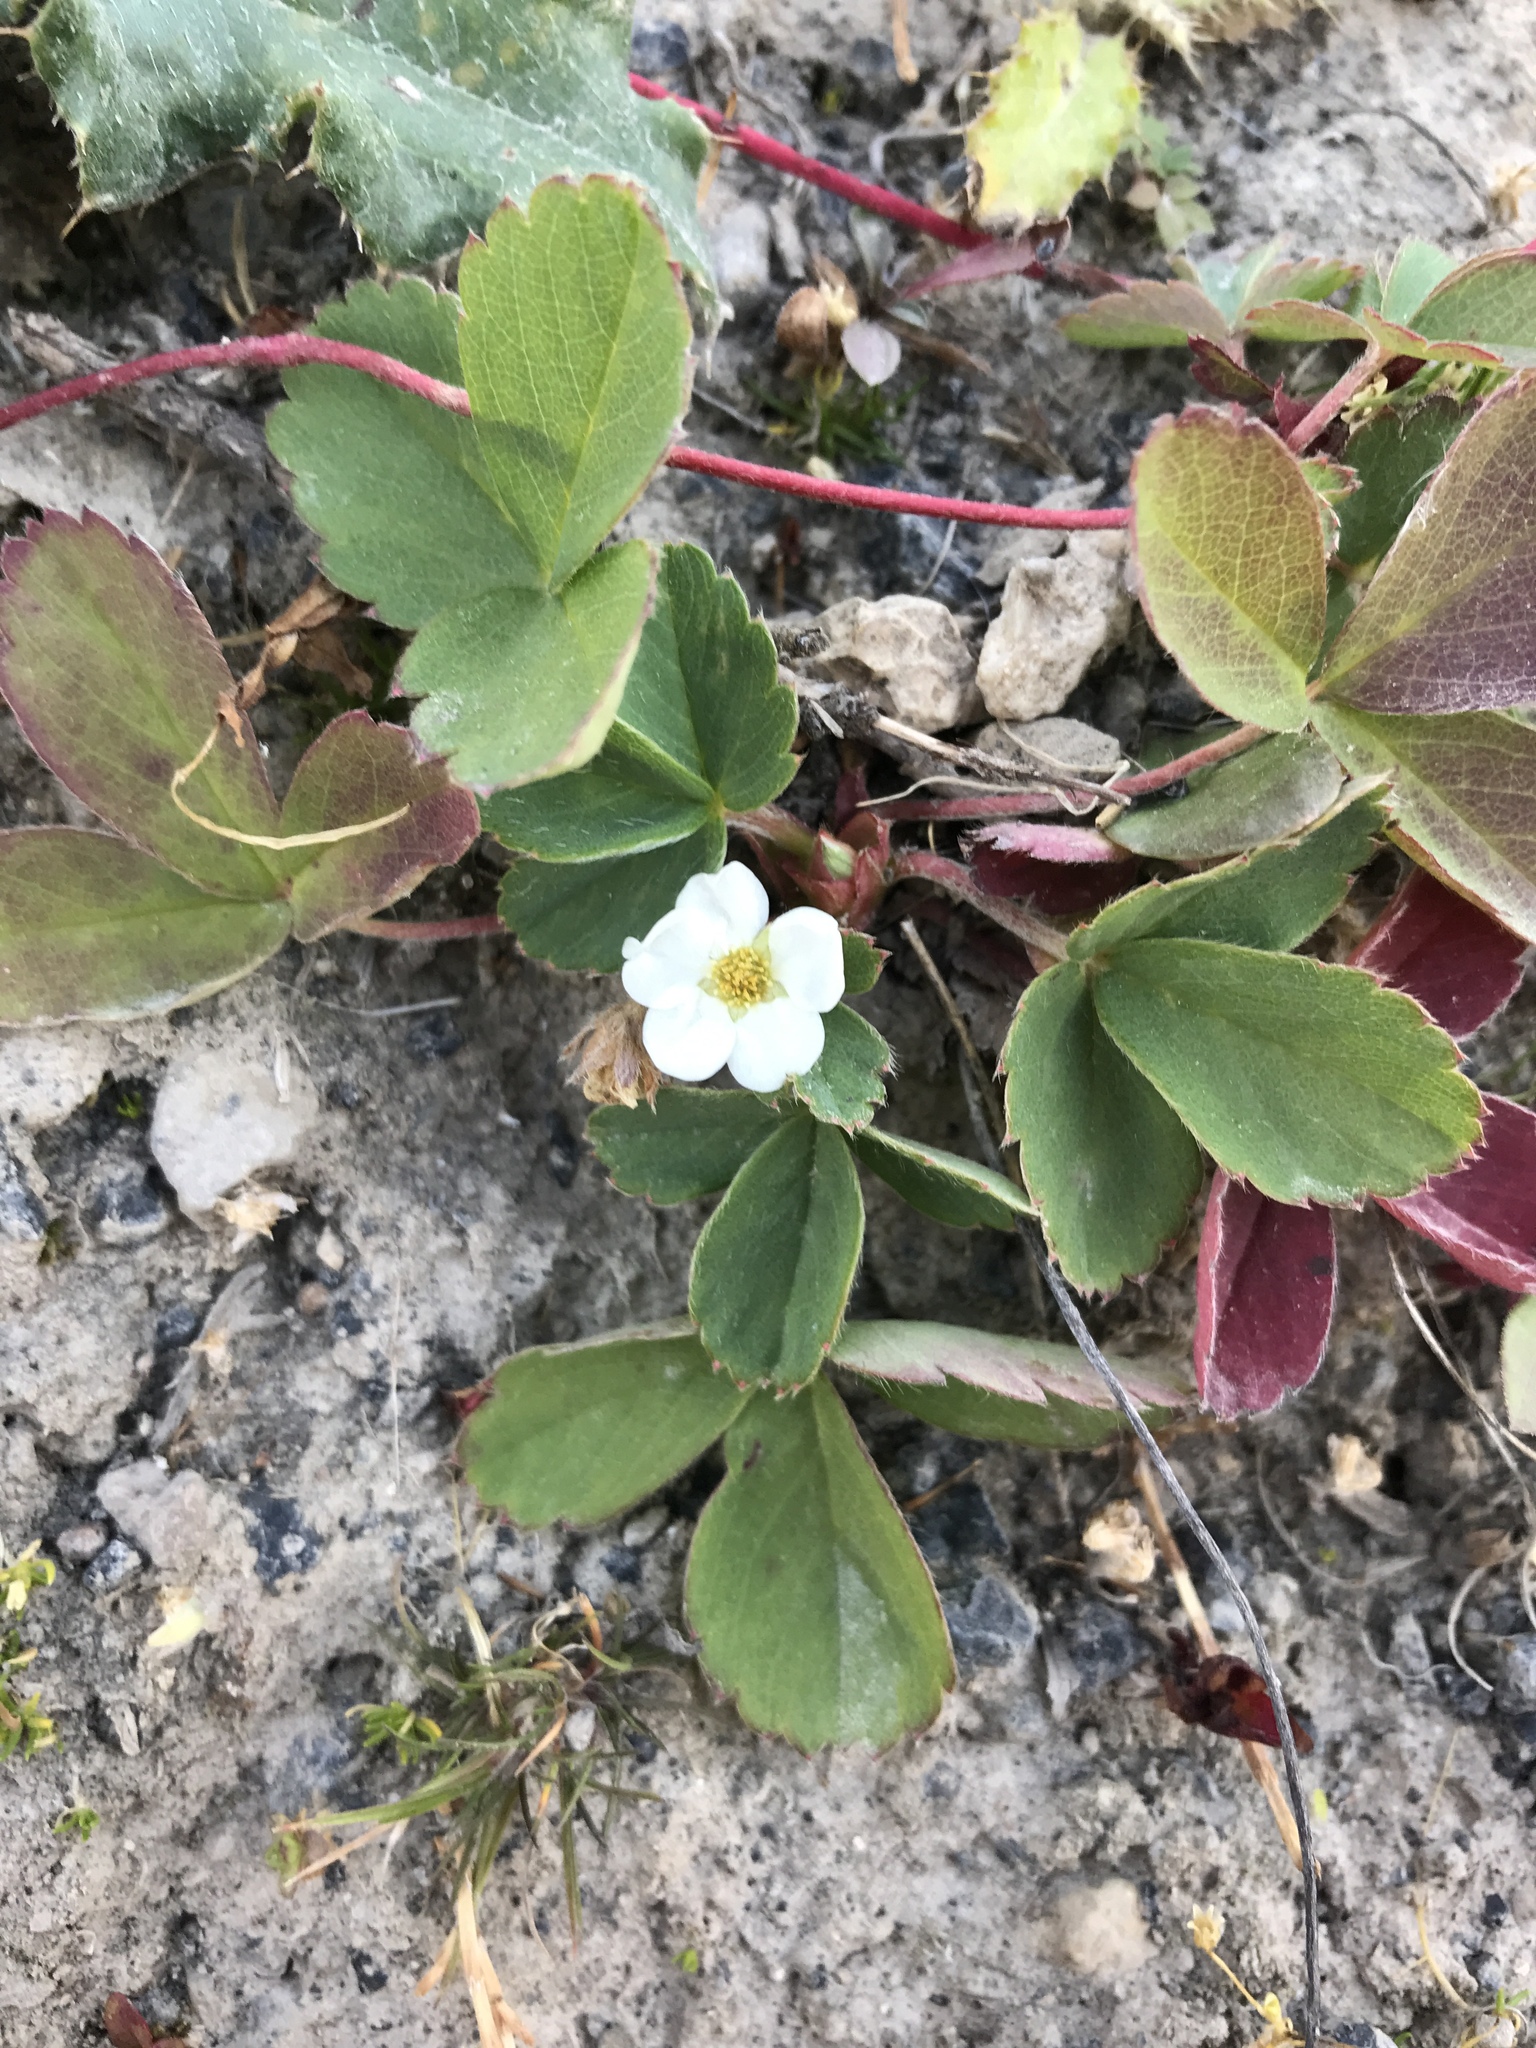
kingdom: Plantae
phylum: Tracheophyta
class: Magnoliopsida
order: Rosales
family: Rosaceae
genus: Fragaria
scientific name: Fragaria virginiana
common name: Thickleaved wild strawberry
